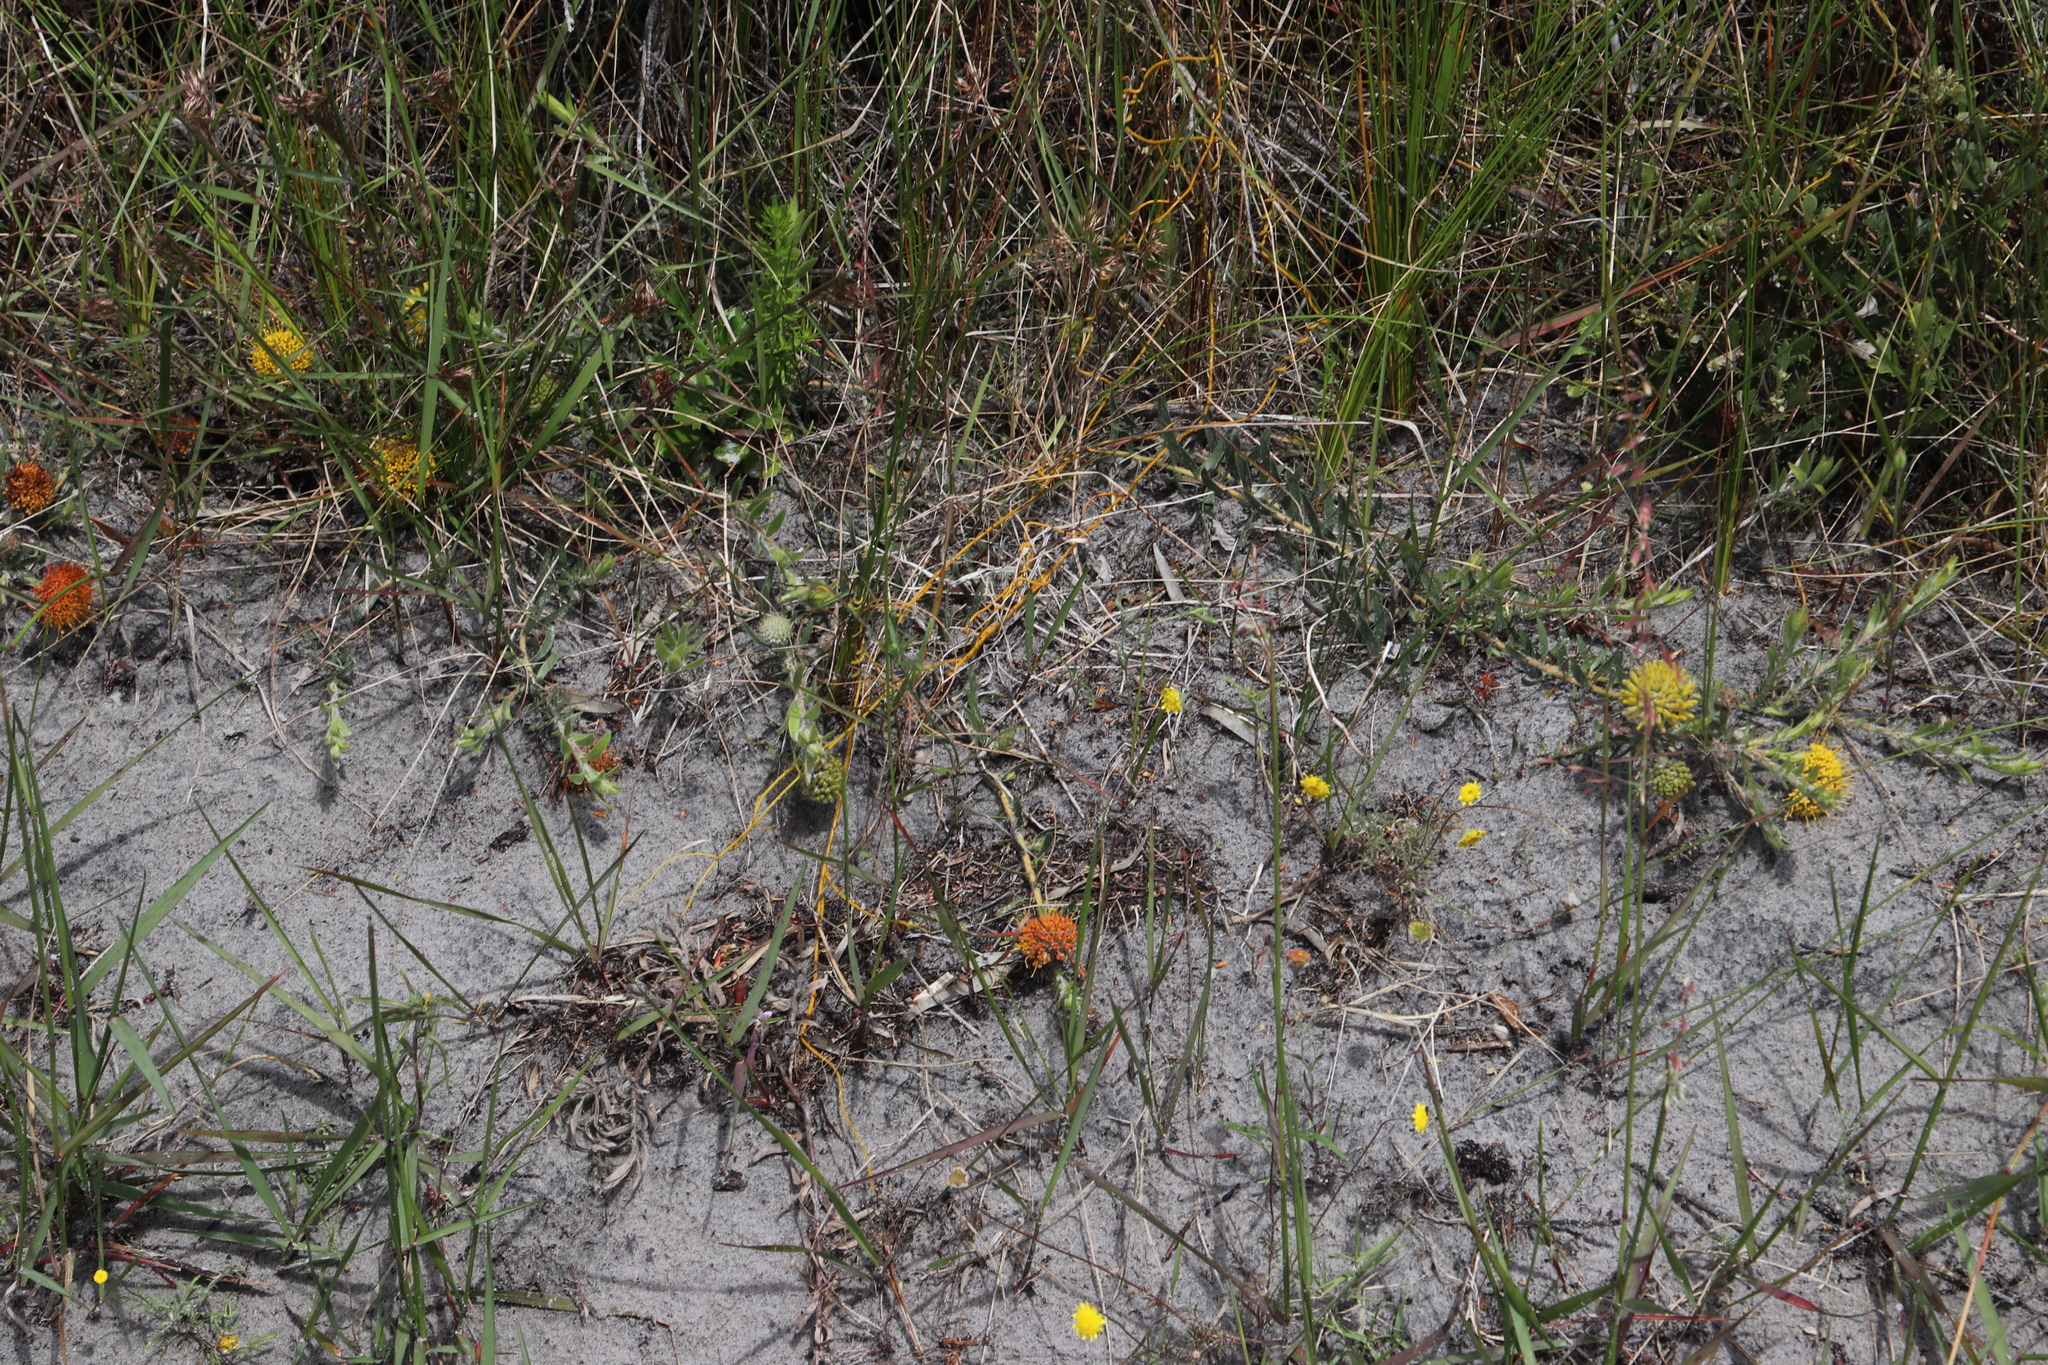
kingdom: Plantae
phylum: Tracheophyta
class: Magnoliopsida
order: Proteales
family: Proteaceae
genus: Leucospermum
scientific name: Leucospermum prostratum
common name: Yellow-trailing pincushion
